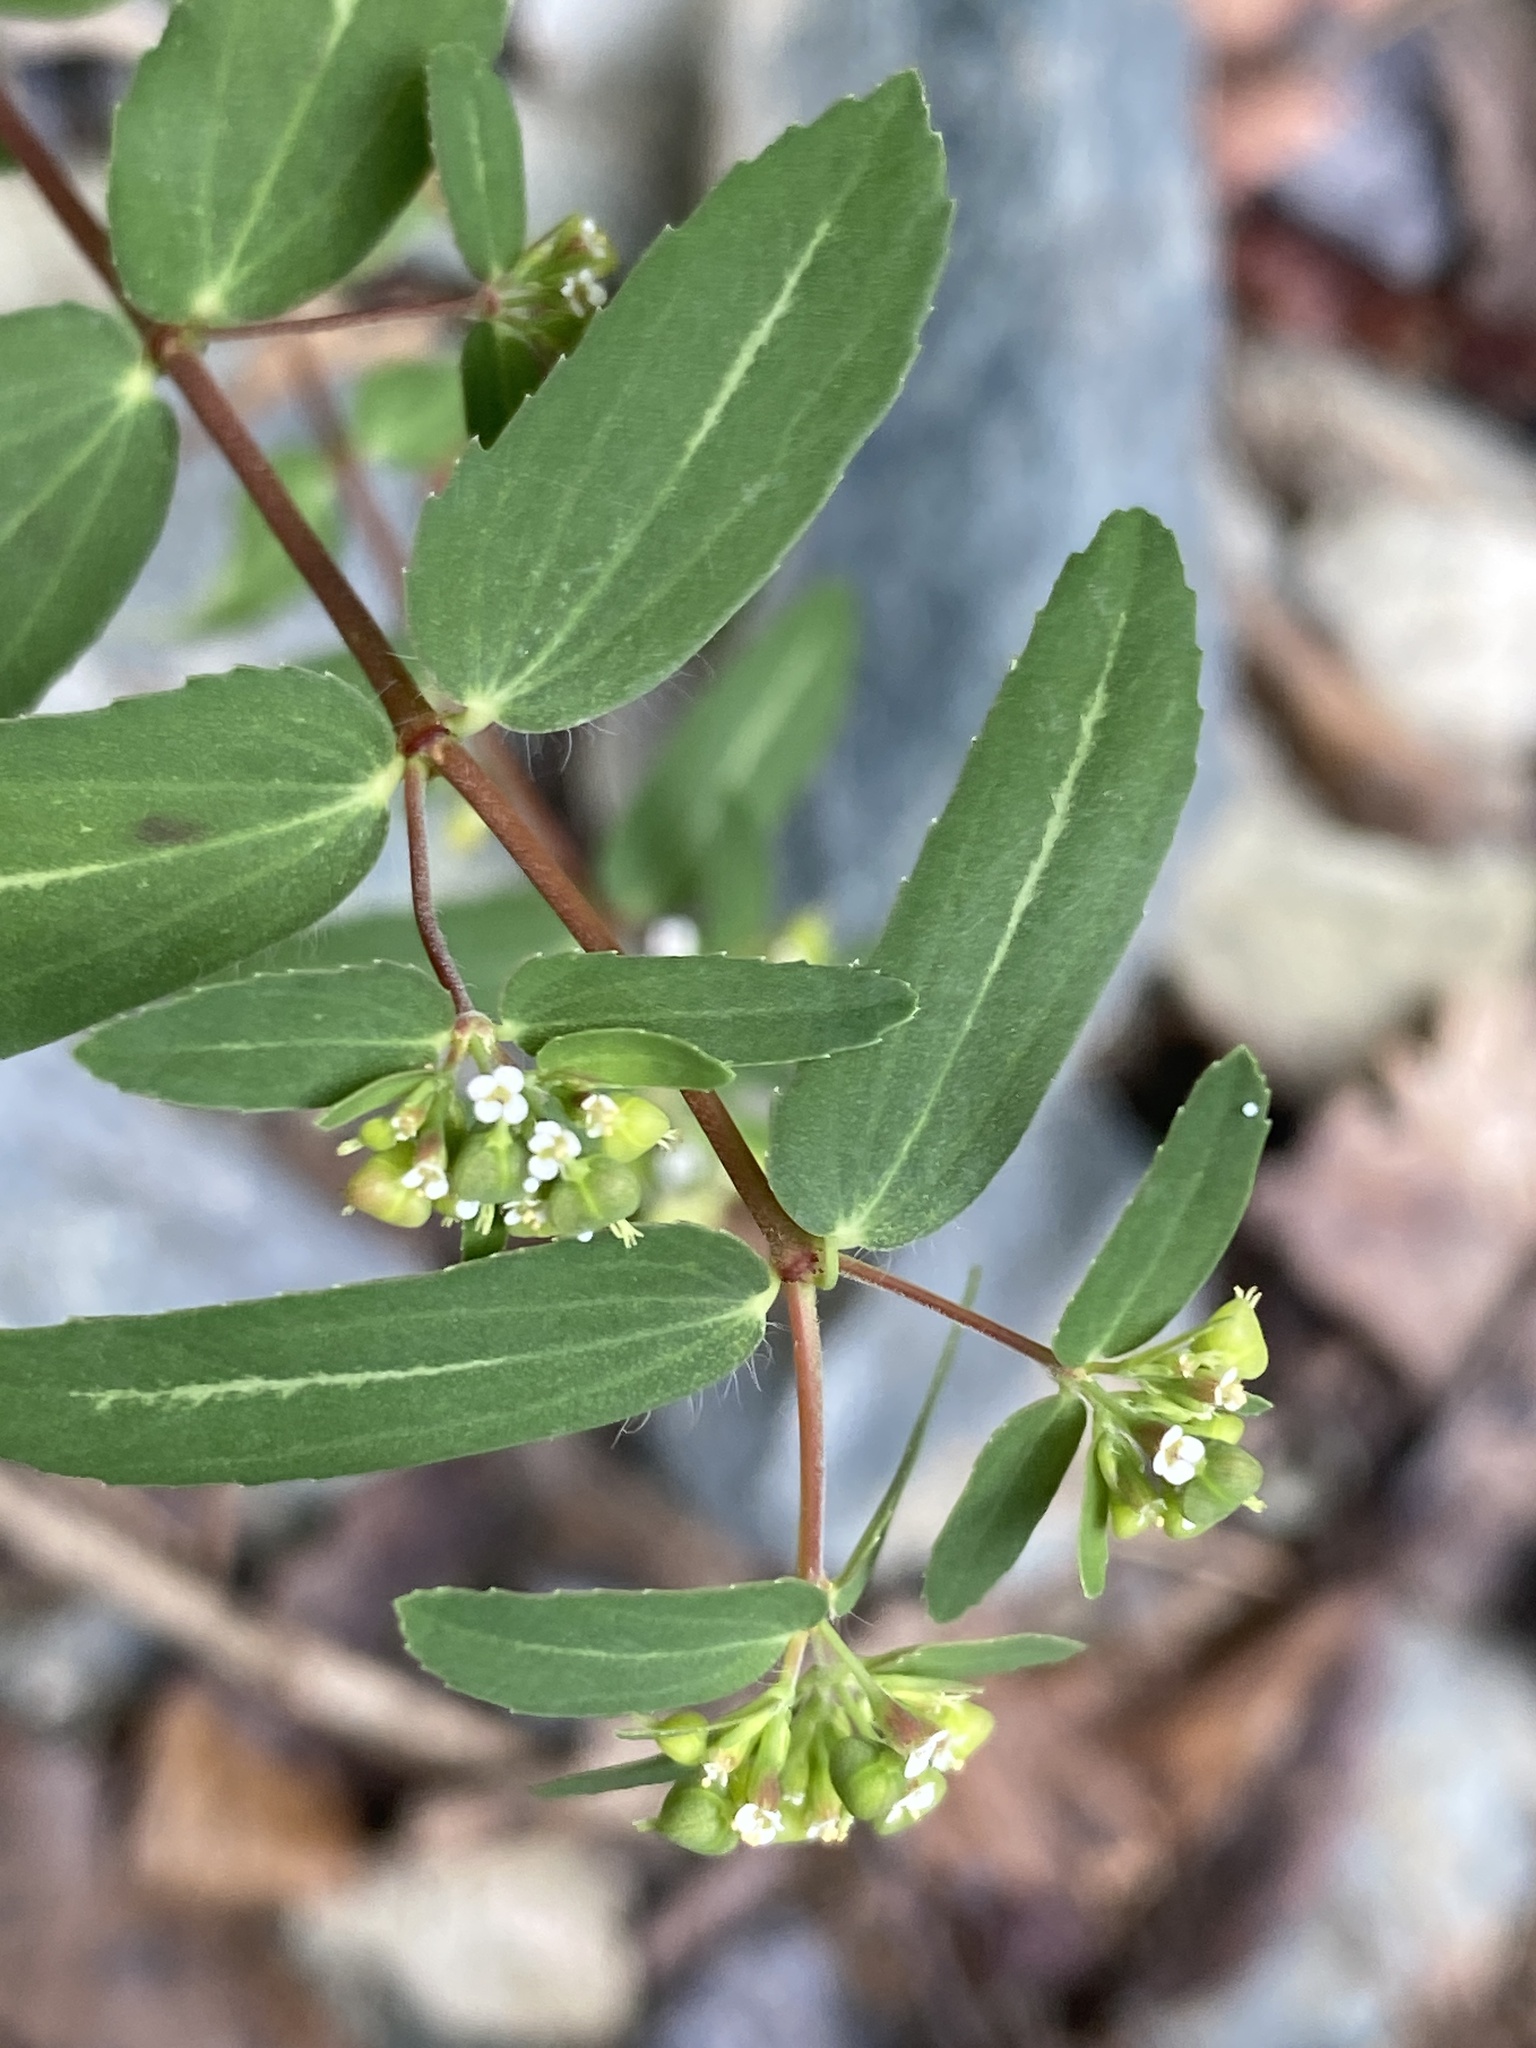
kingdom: Plantae
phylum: Tracheophyta
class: Magnoliopsida
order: Malpighiales
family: Euphorbiaceae
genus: Euphorbia
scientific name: Euphorbia nutans
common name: Eyebane
